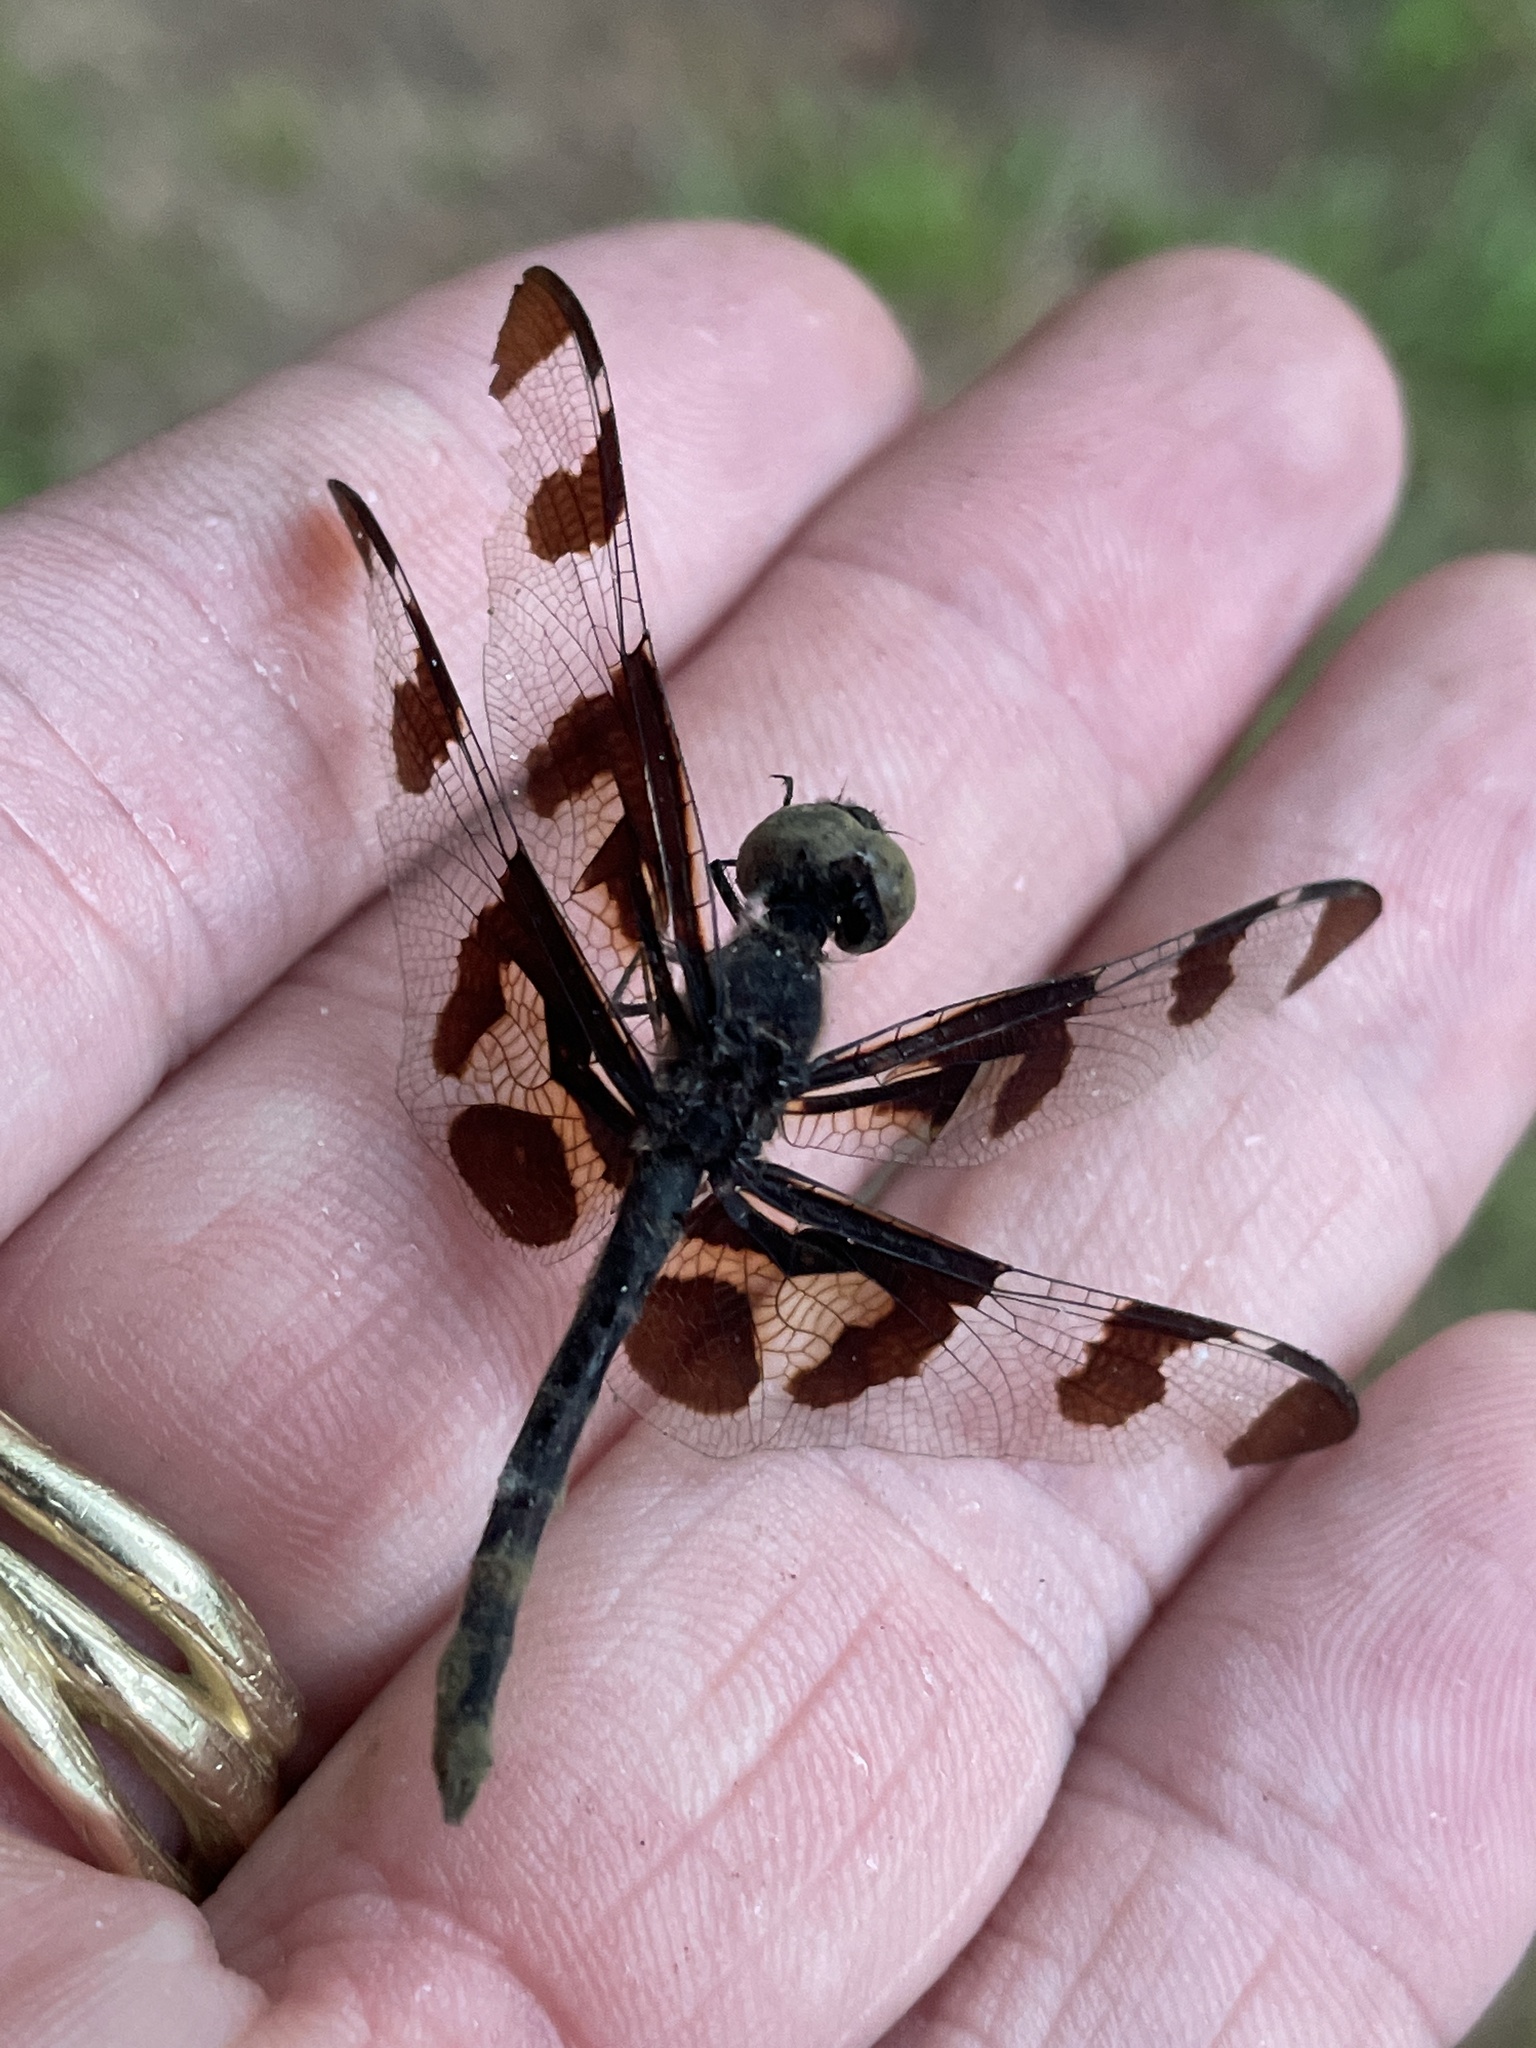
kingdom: Animalia
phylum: Arthropoda
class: Insecta
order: Odonata
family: Libellulidae
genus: Celithemis
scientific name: Celithemis fasciata
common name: Banded pennant
